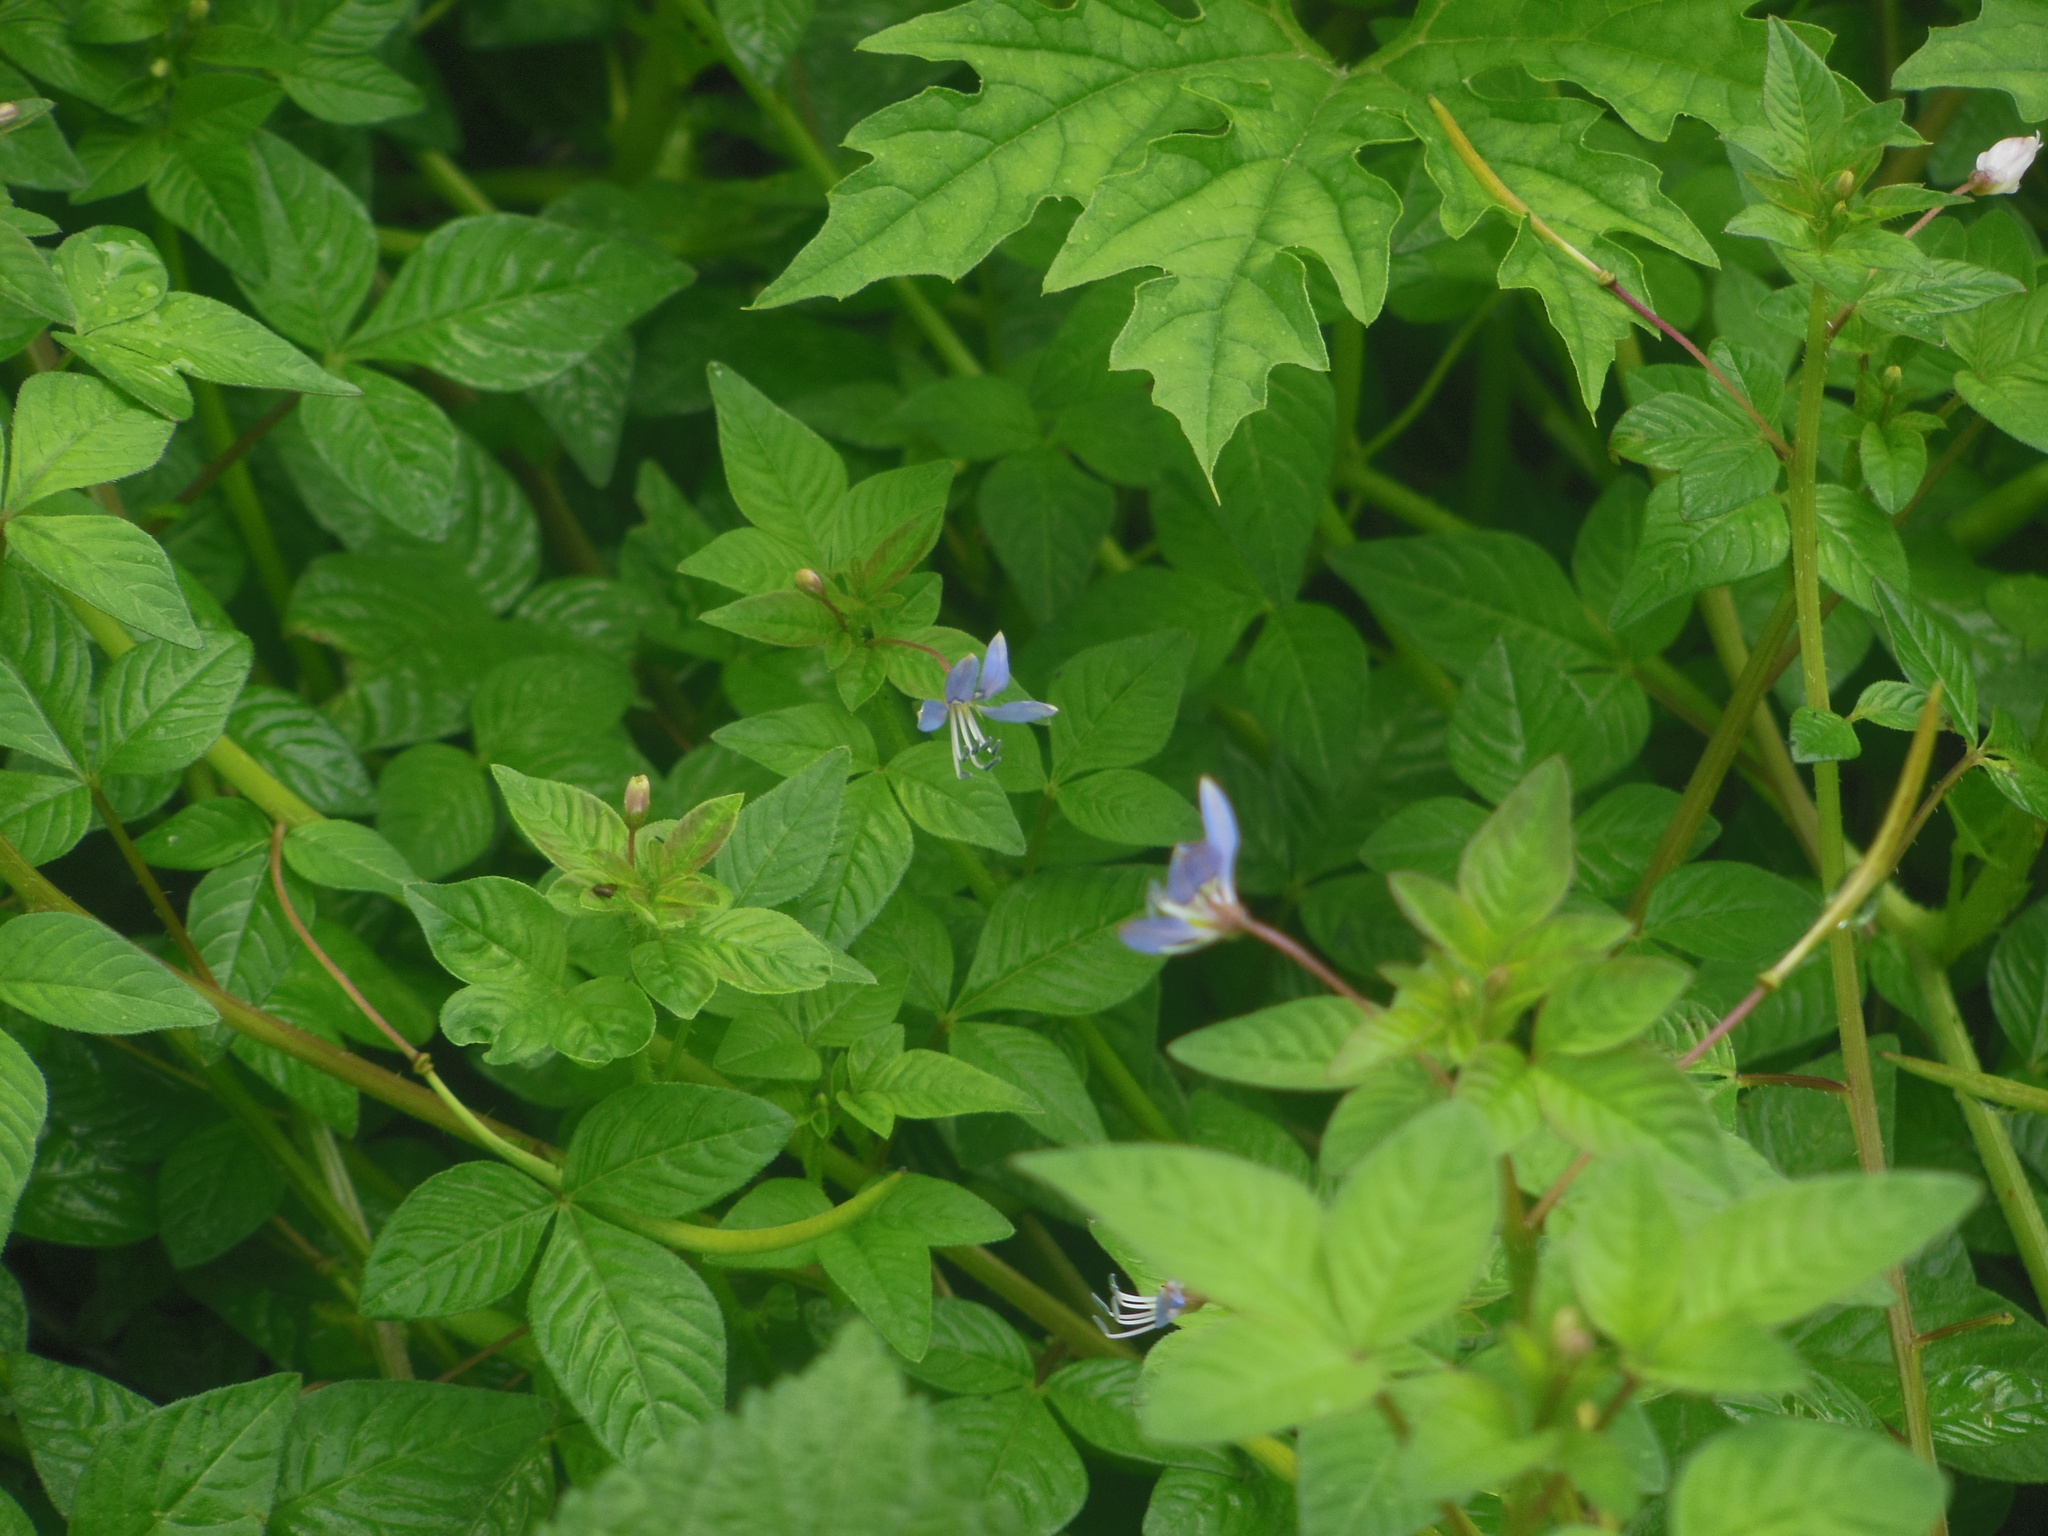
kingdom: Plantae
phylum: Tracheophyta
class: Magnoliopsida
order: Brassicales
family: Cleomaceae
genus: Sieruela
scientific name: Sieruela rutidosperma
